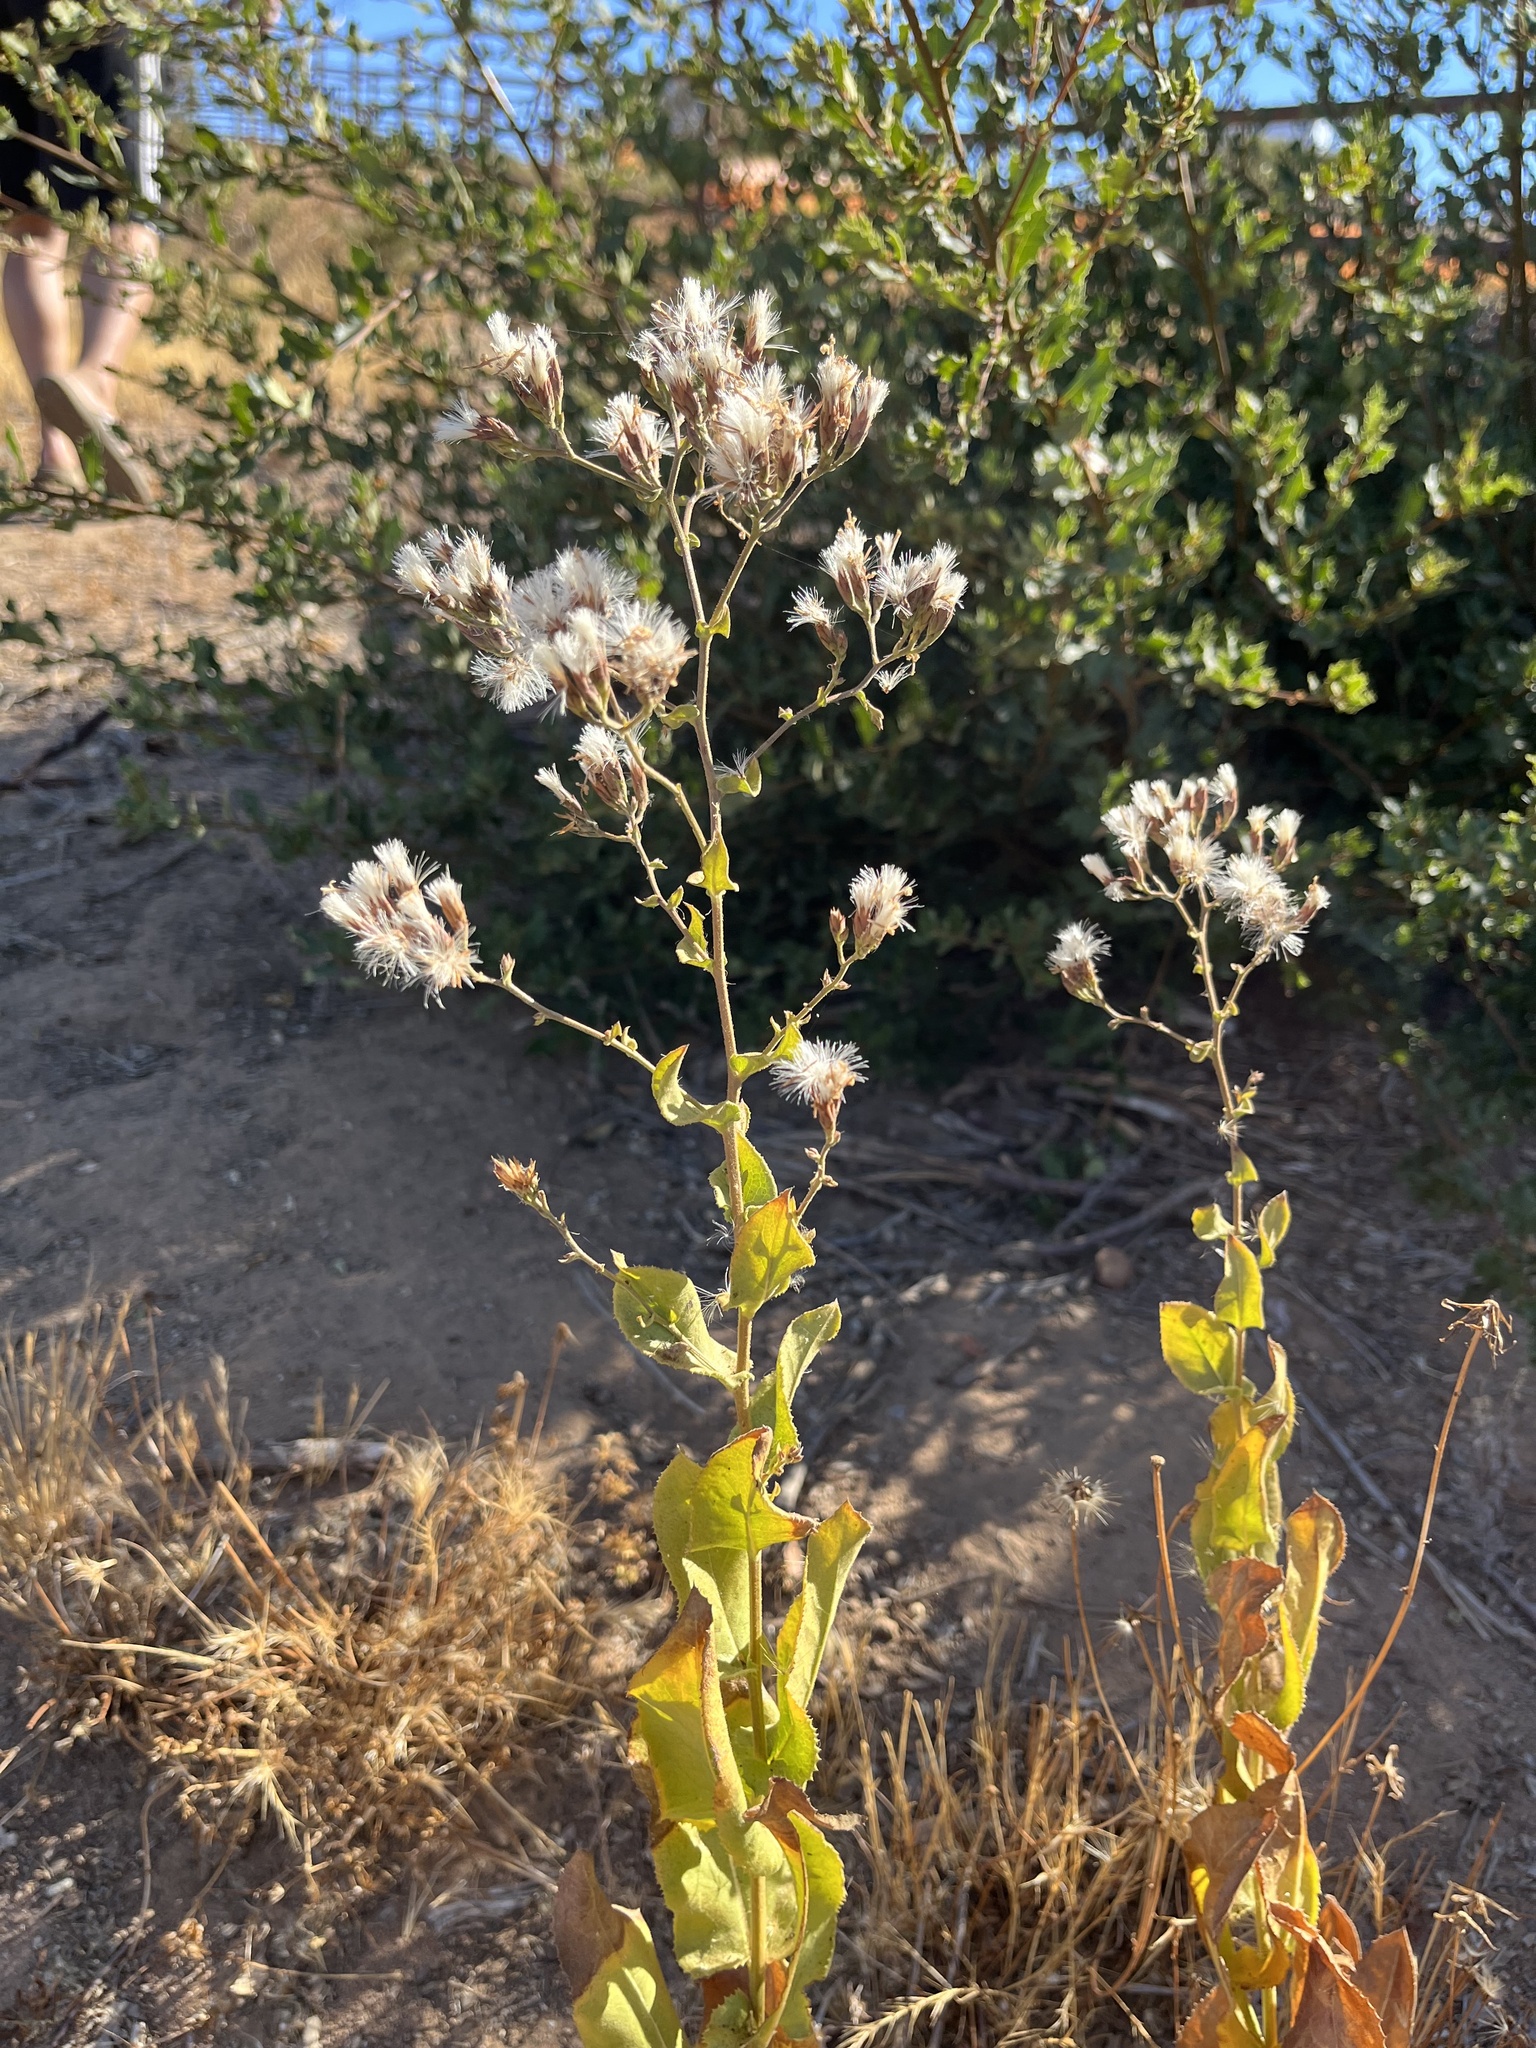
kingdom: Plantae
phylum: Tracheophyta
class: Magnoliopsida
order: Asterales
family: Asteraceae
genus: Acourtia
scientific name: Acourtia microcephala
